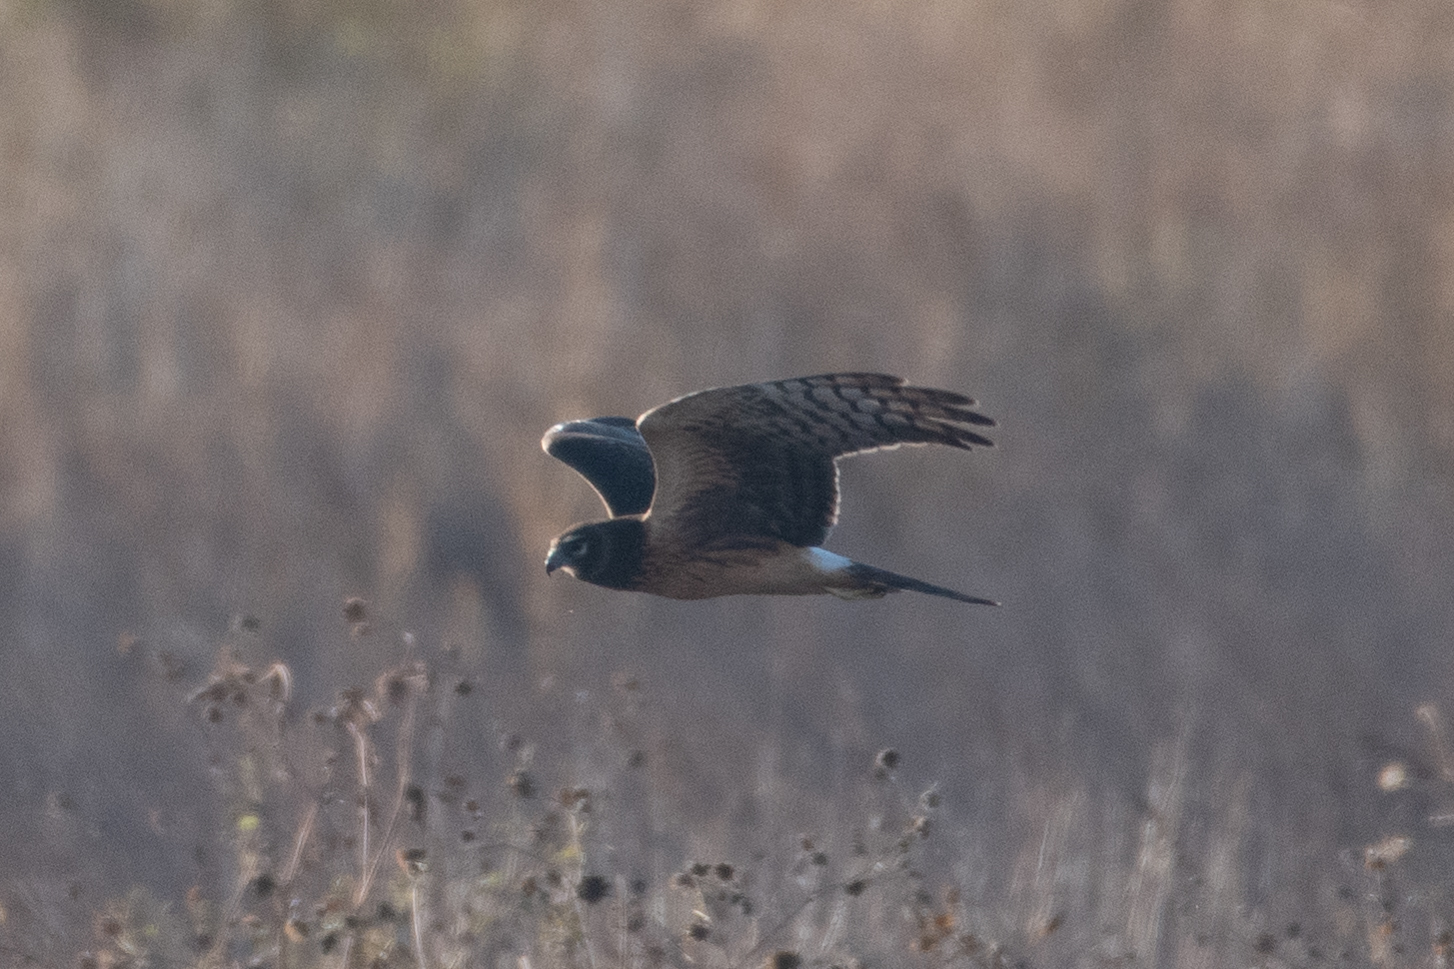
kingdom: Animalia
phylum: Chordata
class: Aves
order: Accipitriformes
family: Accipitridae
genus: Circus
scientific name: Circus cyaneus
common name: Hen harrier
